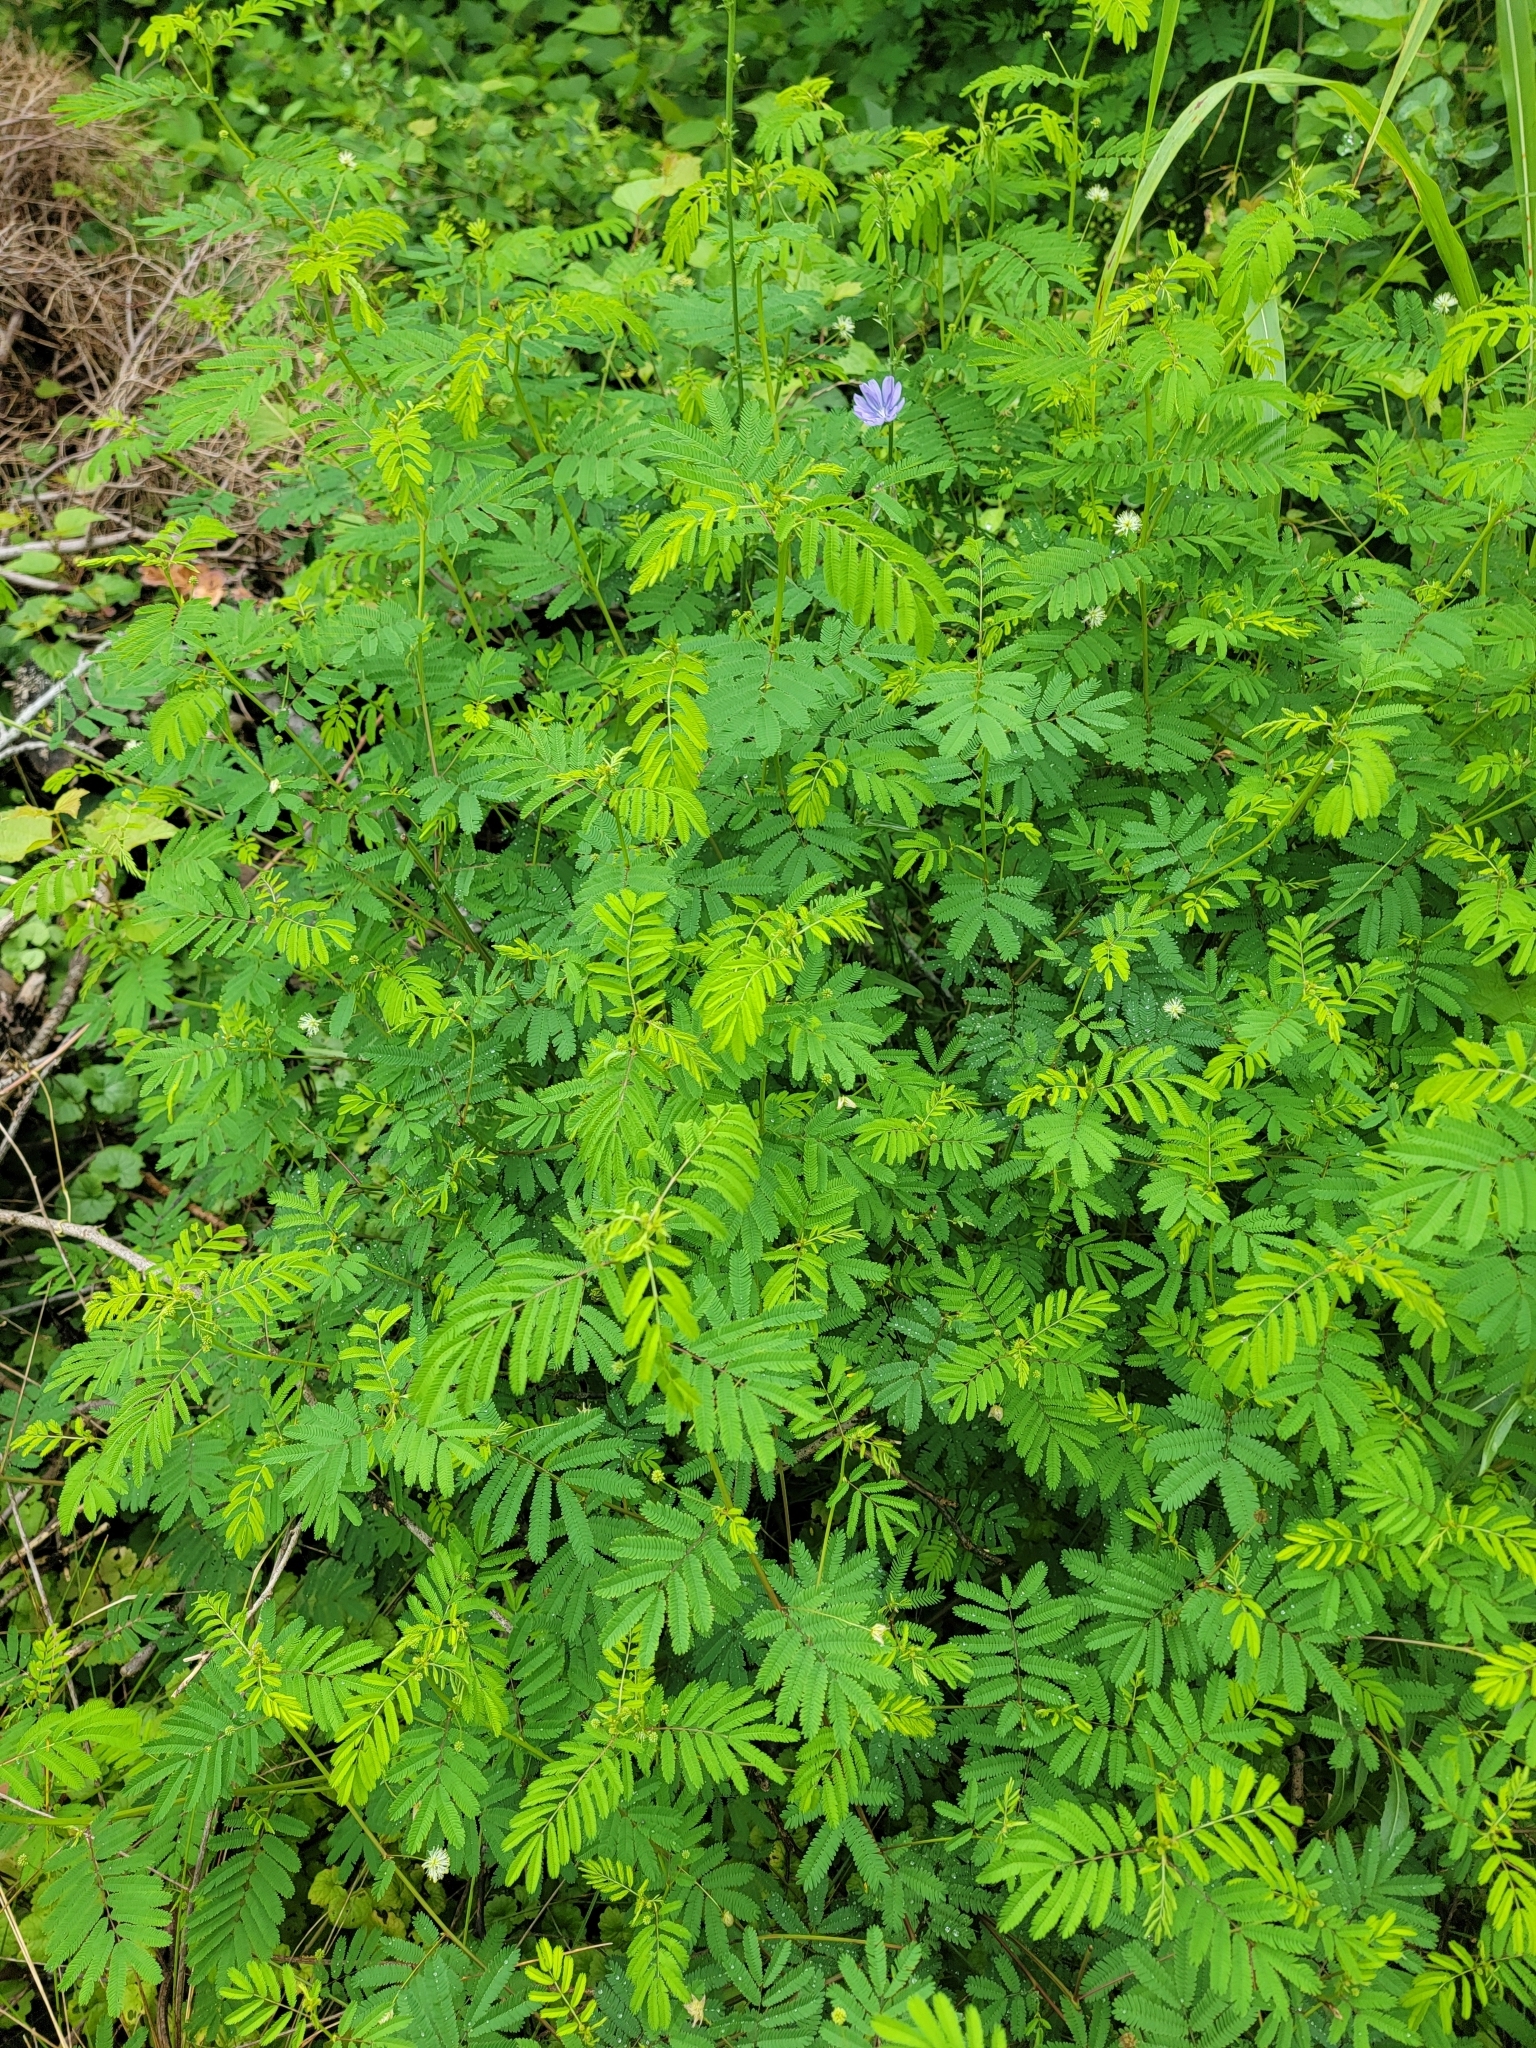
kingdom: Plantae
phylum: Tracheophyta
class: Magnoliopsida
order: Fabales
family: Fabaceae
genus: Desmanthus
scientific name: Desmanthus illinoensis
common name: Illinois bundle-flower
